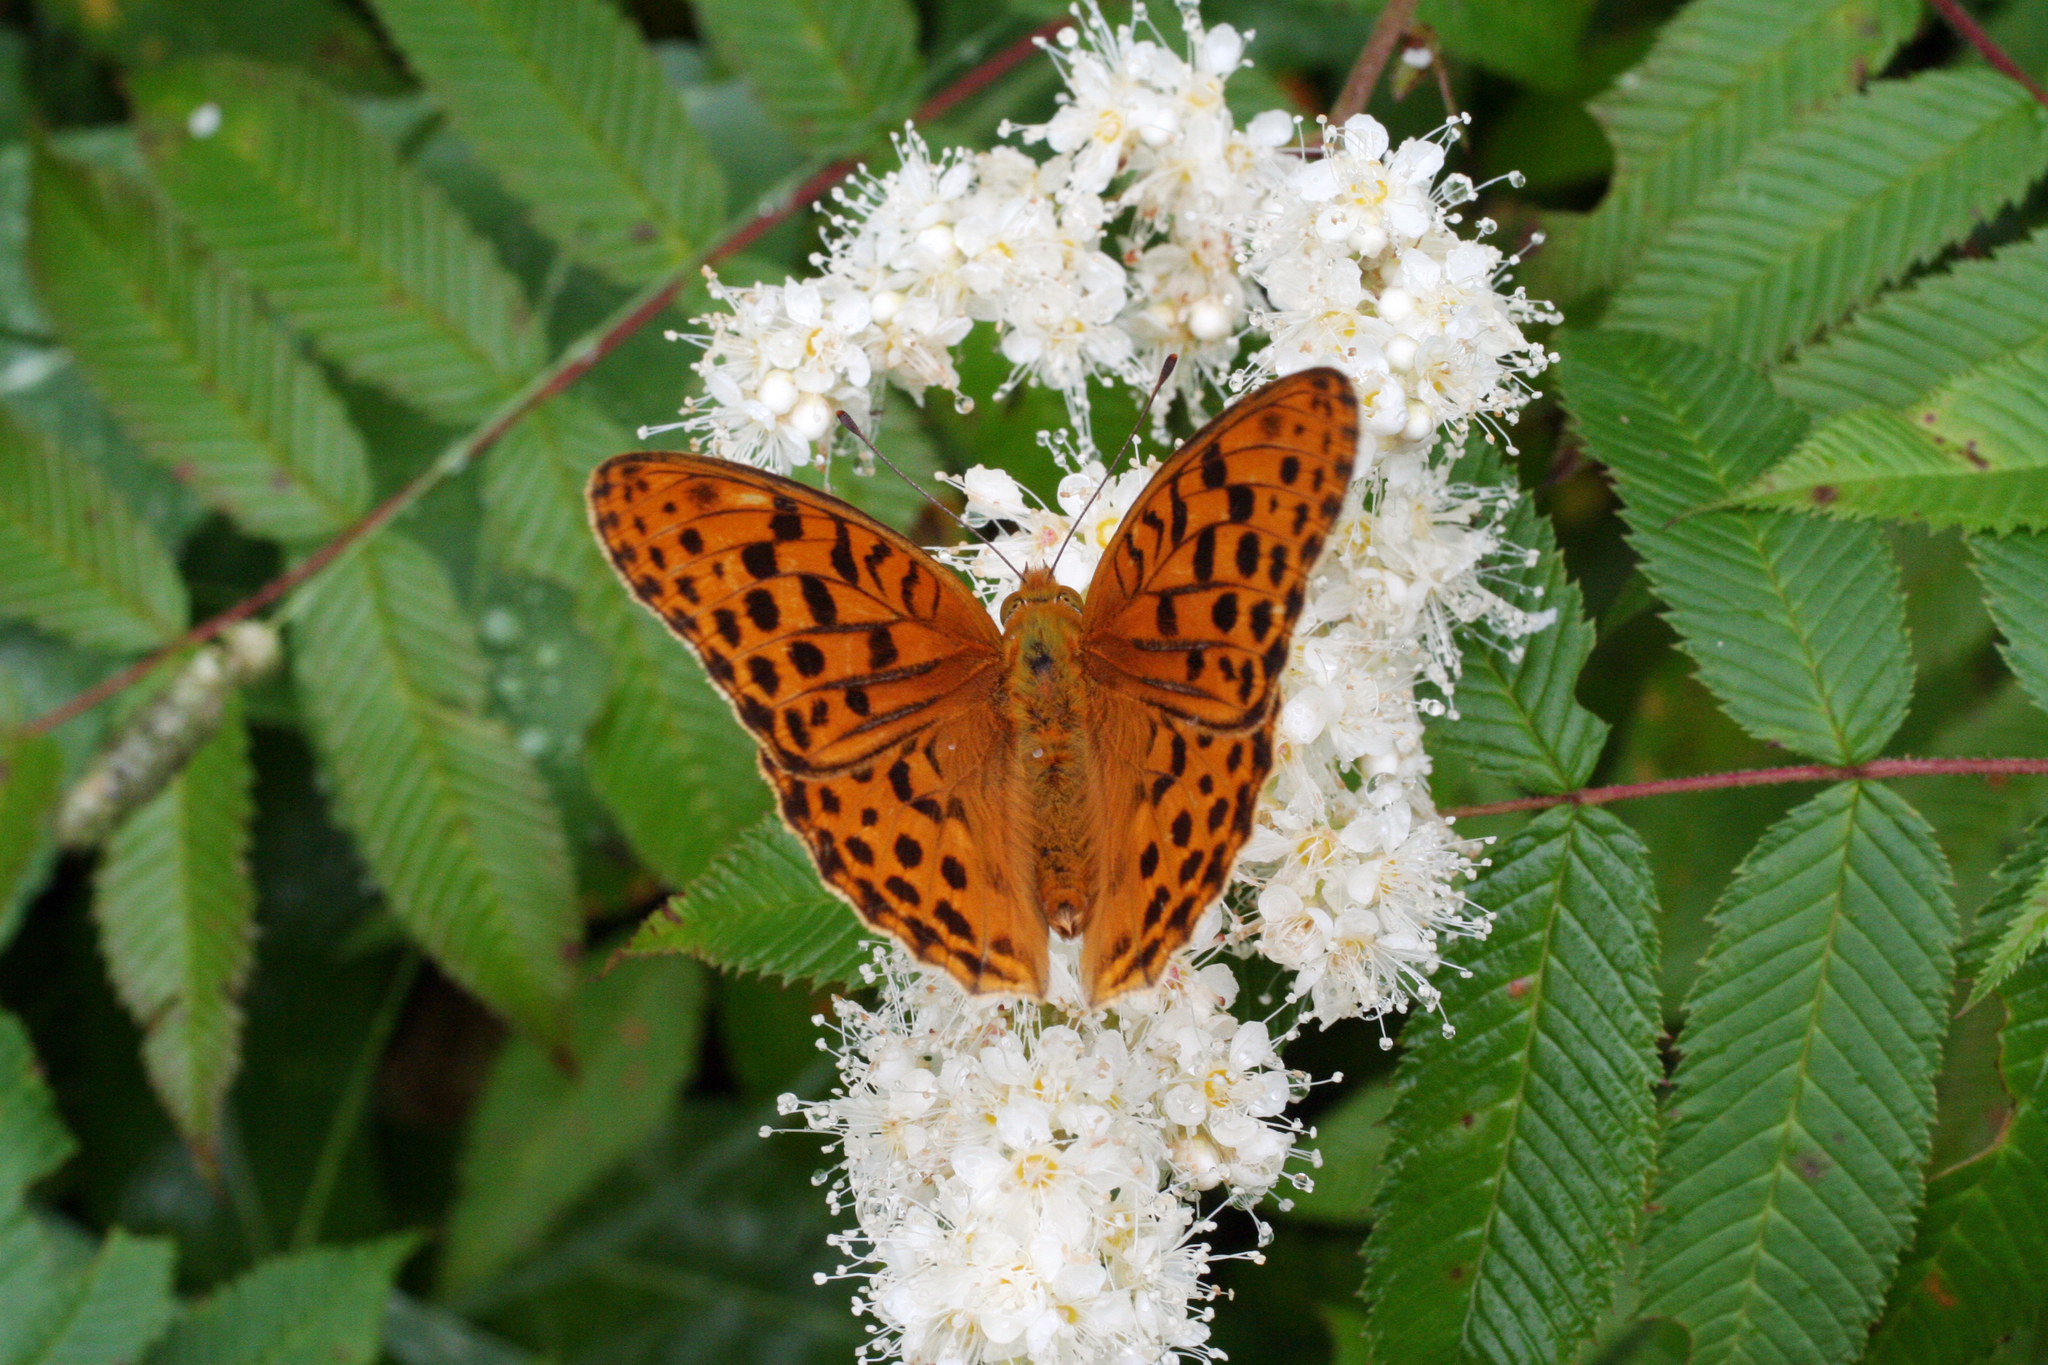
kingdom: Plantae
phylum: Tracheophyta
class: Magnoliopsida
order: Rosales
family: Rosaceae
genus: Sorbaria
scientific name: Sorbaria sorbifolia
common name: False spiraea
